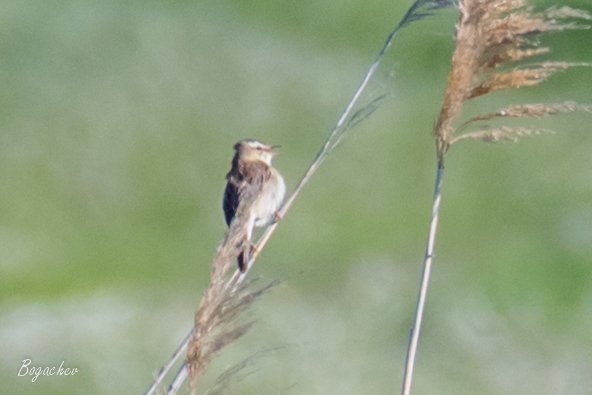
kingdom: Animalia
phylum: Chordata
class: Aves
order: Passeriformes
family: Acrocephalidae
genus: Acrocephalus
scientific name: Acrocephalus schoenobaenus
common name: Sedge warbler
